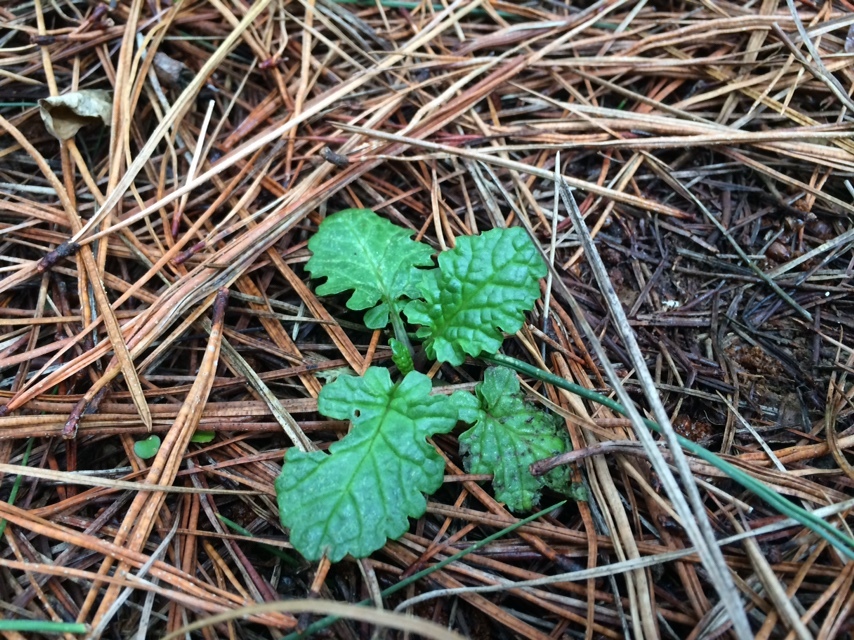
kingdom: Plantae
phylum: Tracheophyta
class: Magnoliopsida
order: Asterales
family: Asteraceae
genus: Jacobaea
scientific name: Jacobaea vulgaris
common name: Stinking willie
